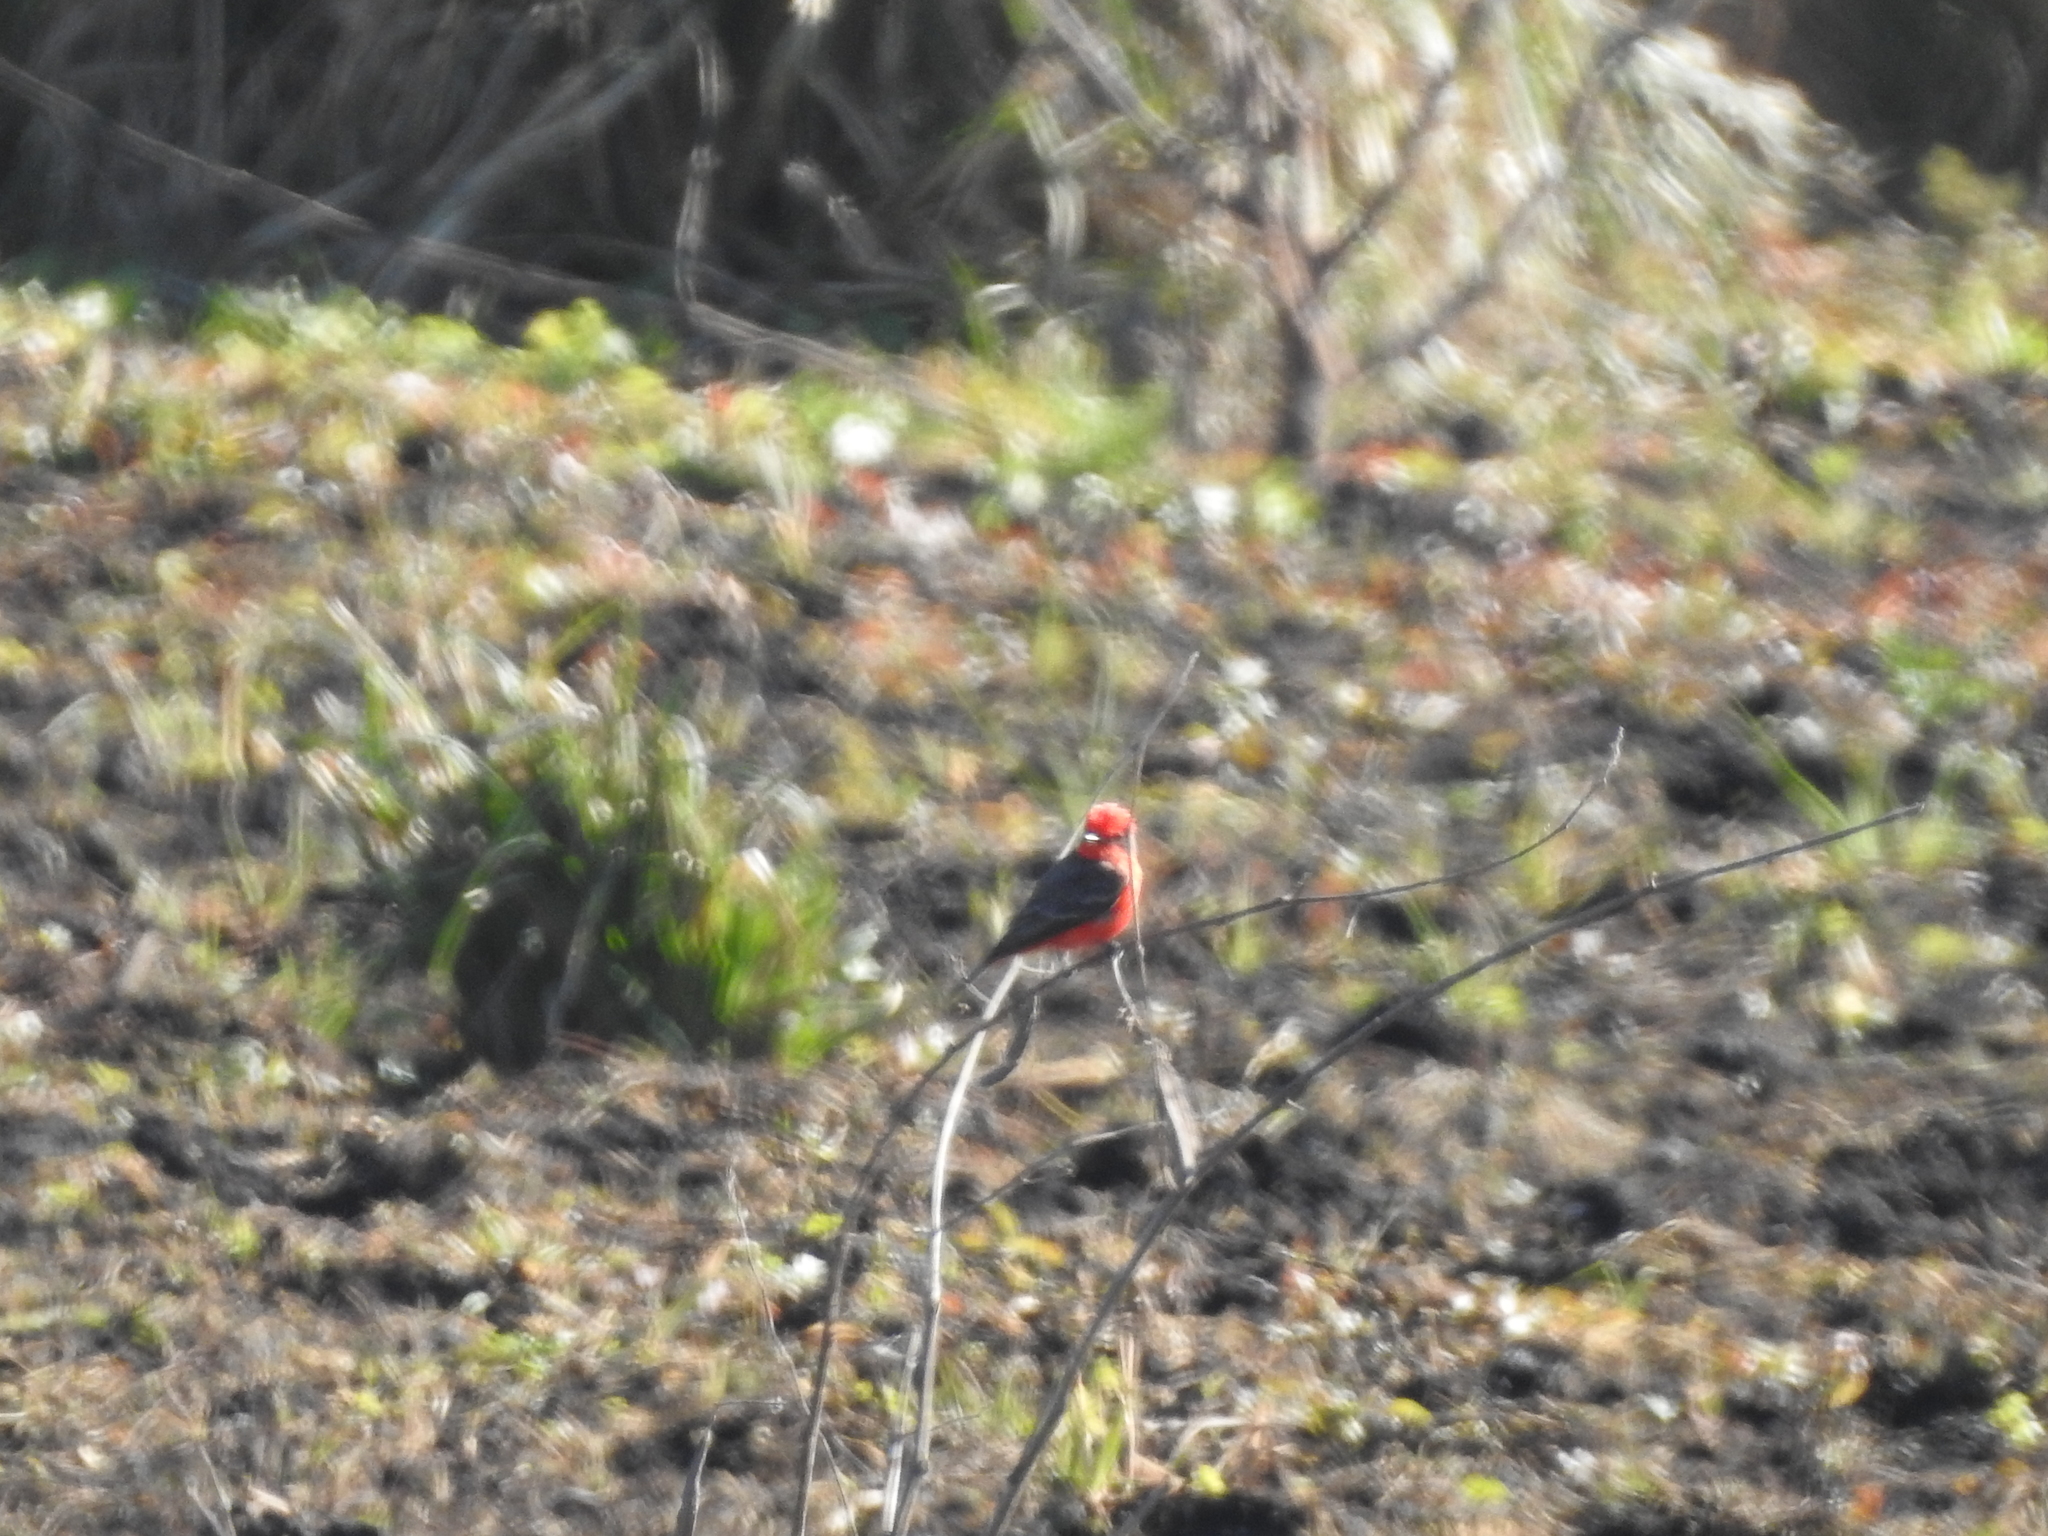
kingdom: Animalia
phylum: Chordata
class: Aves
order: Passeriformes
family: Tyrannidae
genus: Pyrocephalus
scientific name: Pyrocephalus rubinus
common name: Vermilion flycatcher
